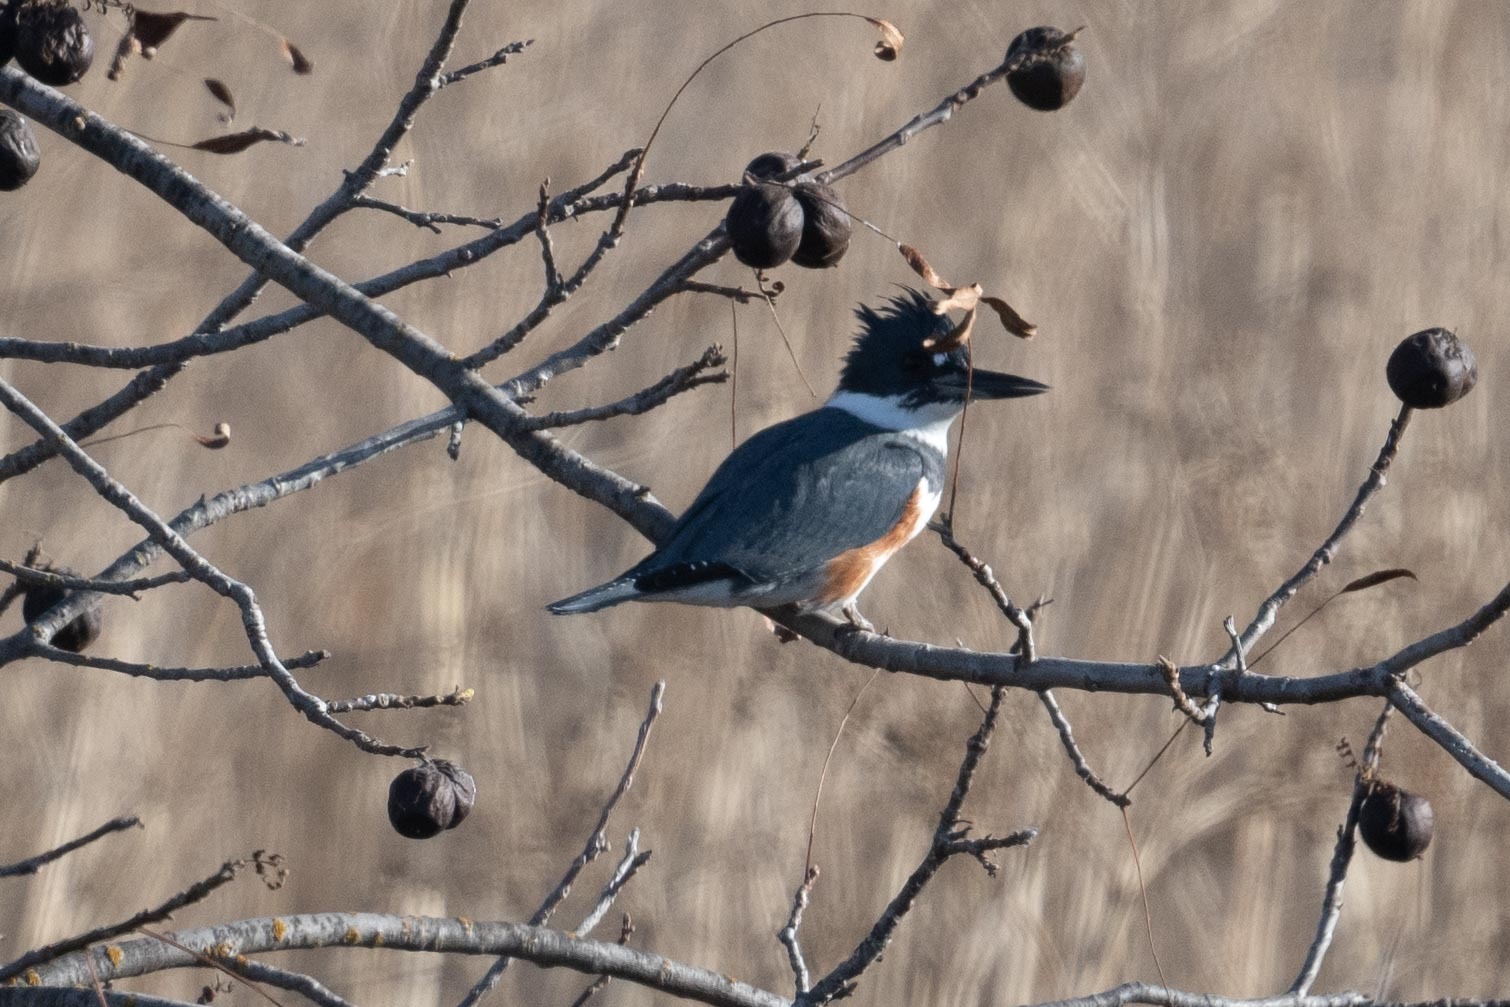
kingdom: Animalia
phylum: Chordata
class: Aves
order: Coraciiformes
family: Alcedinidae
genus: Megaceryle
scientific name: Megaceryle alcyon
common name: Belted kingfisher
